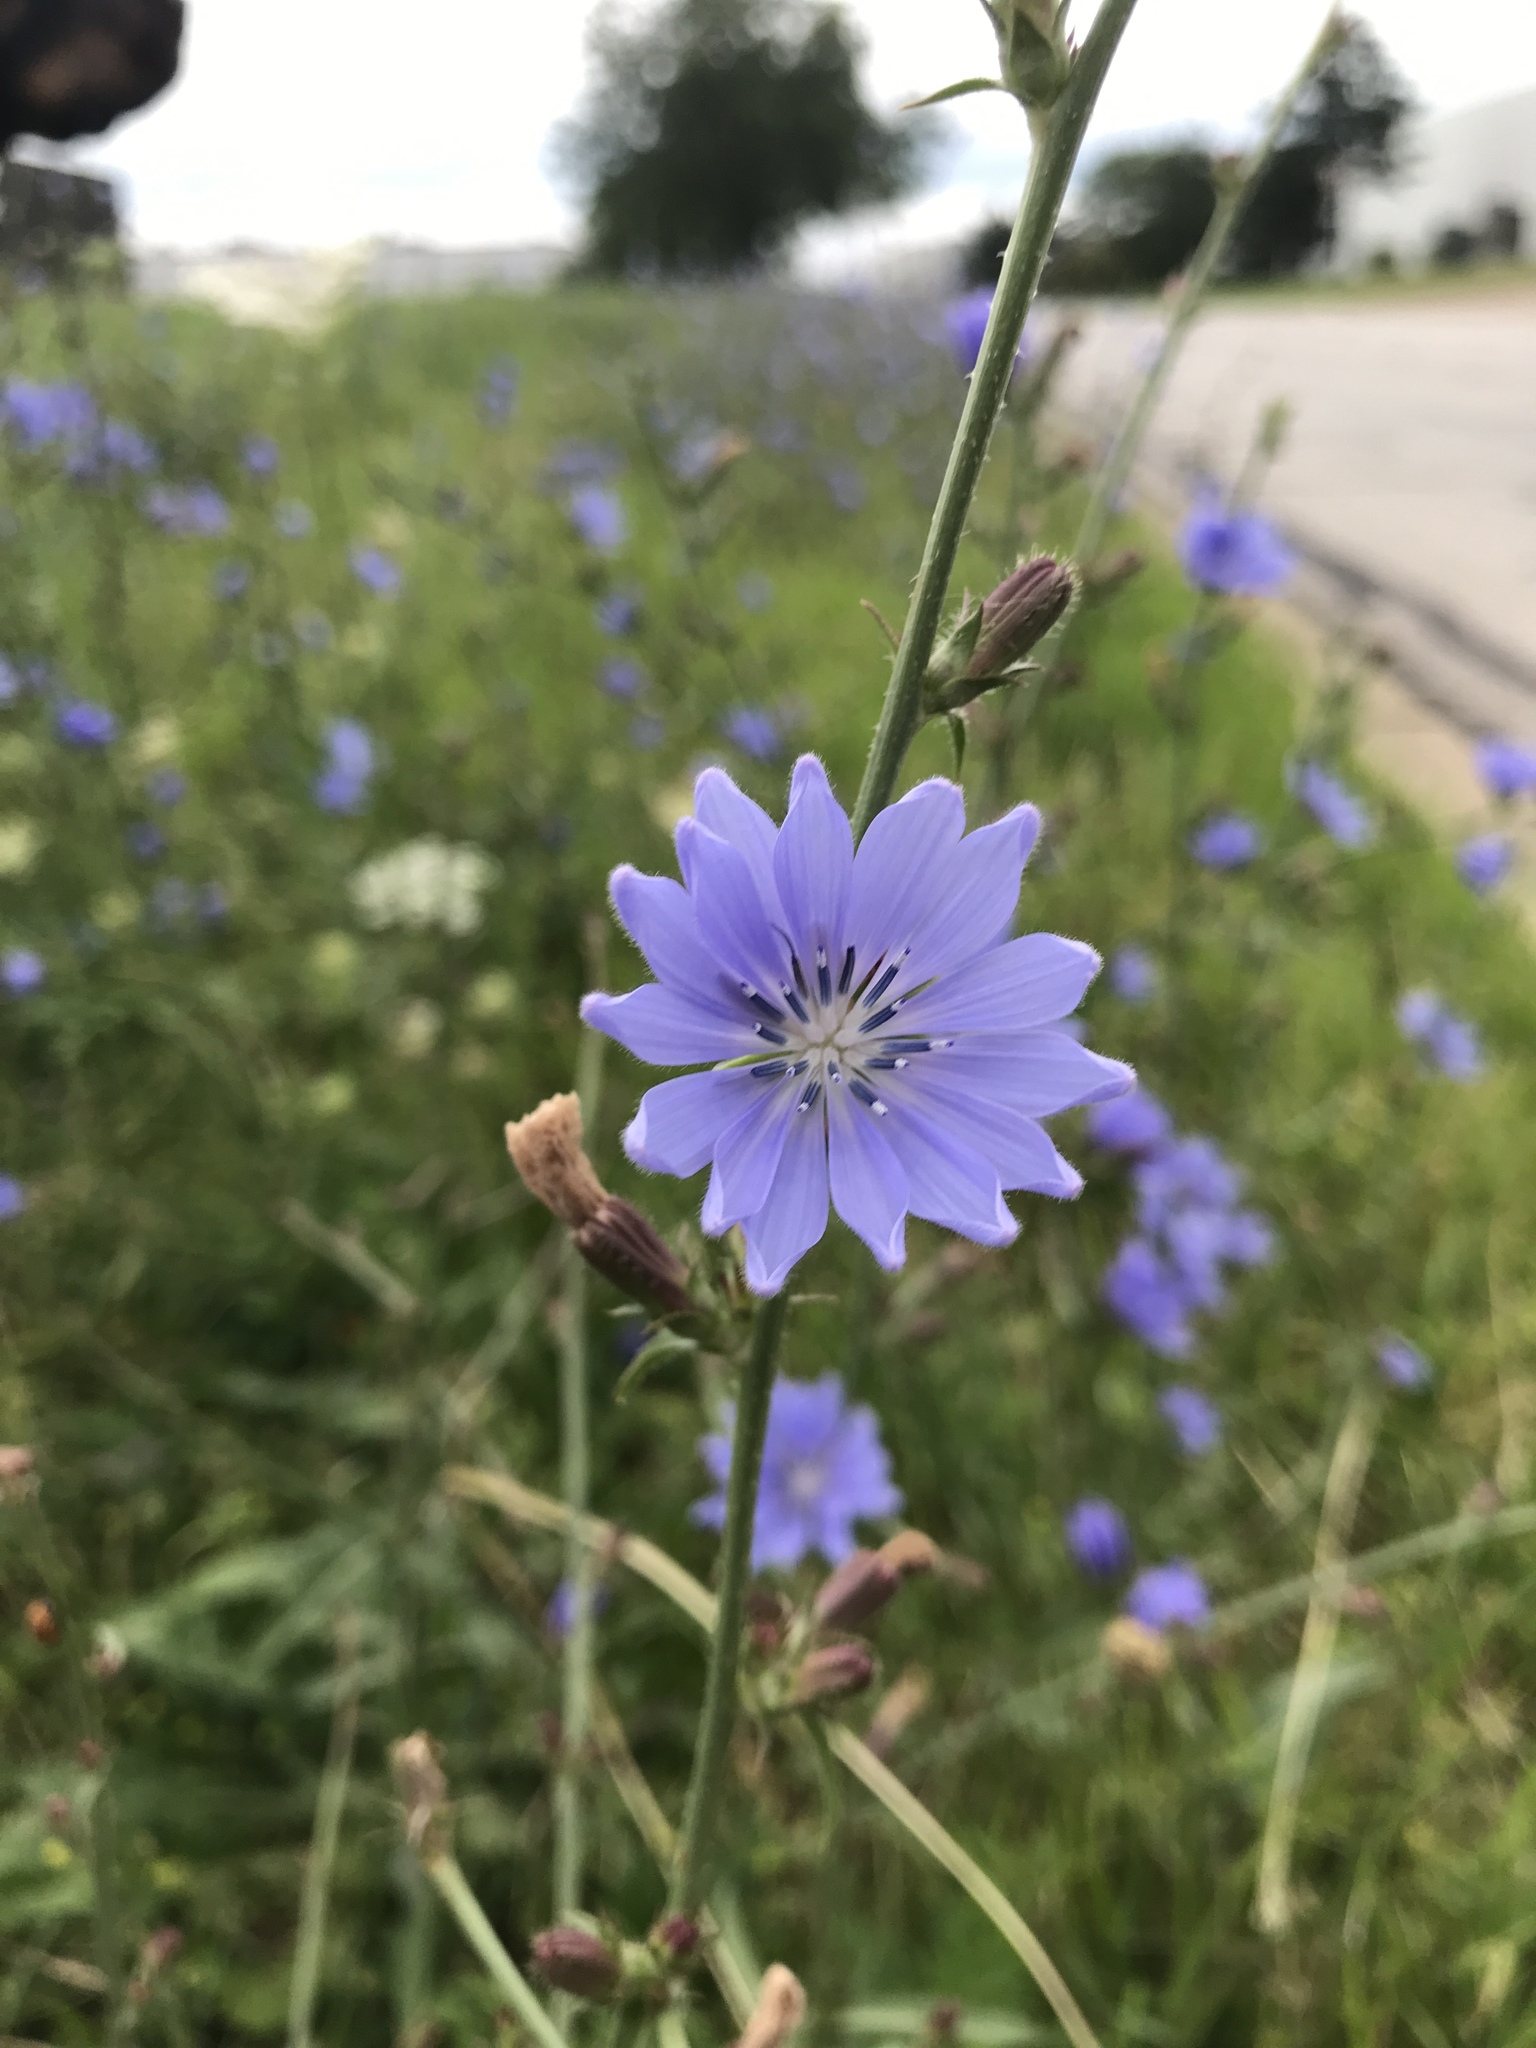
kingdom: Plantae
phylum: Tracheophyta
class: Magnoliopsida
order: Asterales
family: Asteraceae
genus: Cichorium
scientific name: Cichorium intybus
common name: Chicory
